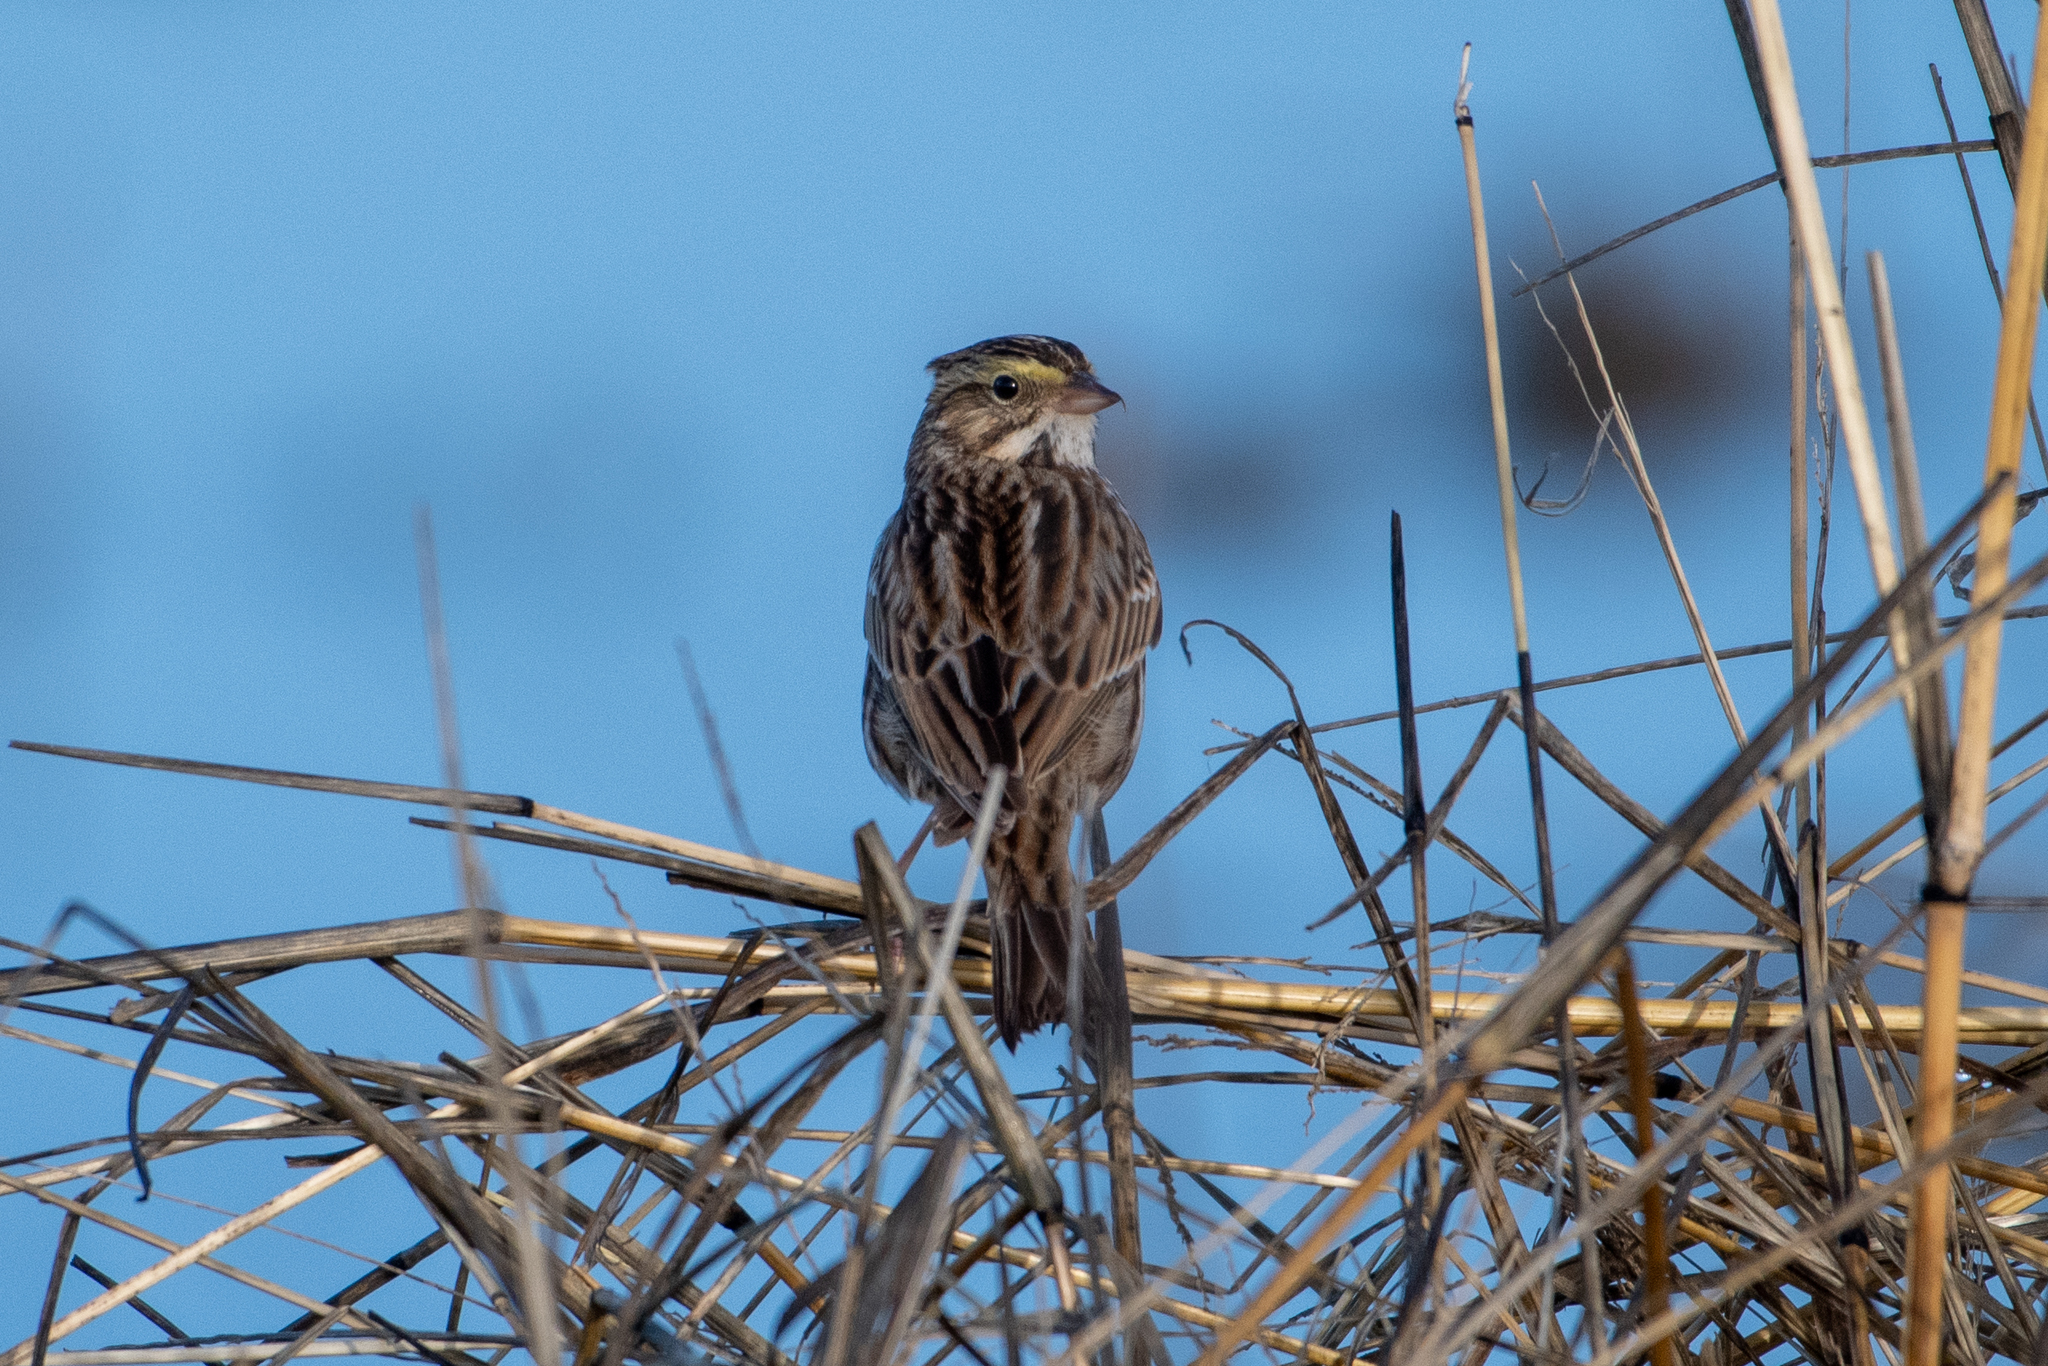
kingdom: Animalia
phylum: Chordata
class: Aves
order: Passeriformes
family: Passerellidae
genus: Passerculus
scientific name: Passerculus sandwichensis
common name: Savannah sparrow
